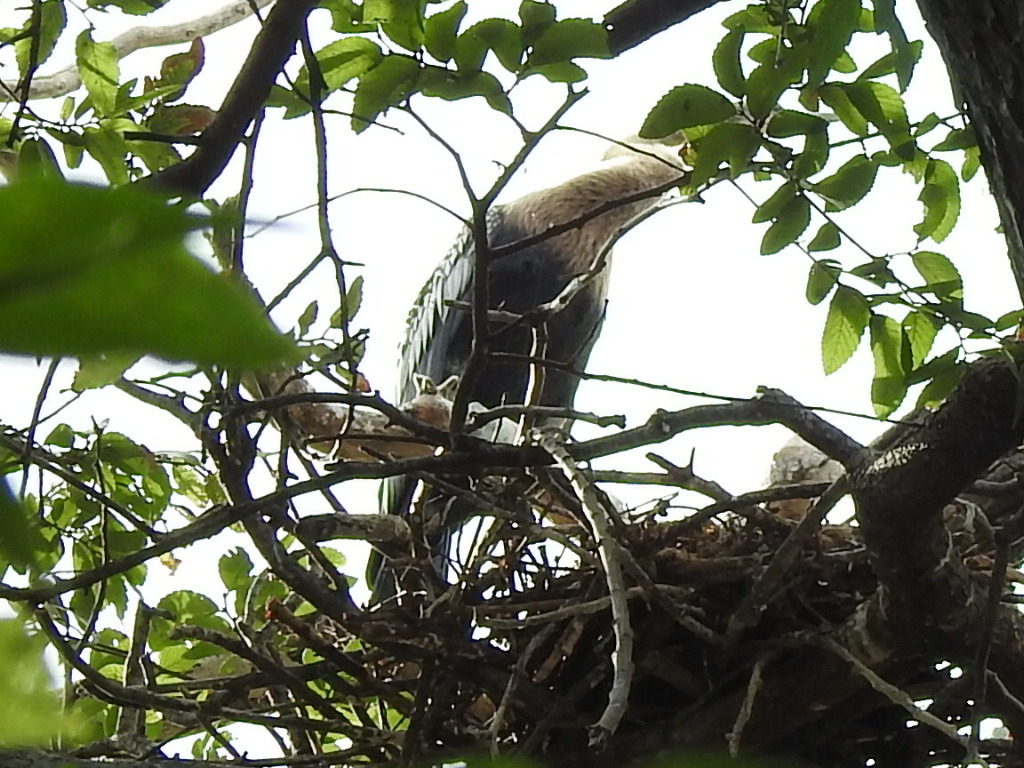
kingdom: Animalia
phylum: Chordata
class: Aves
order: Suliformes
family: Anhingidae
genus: Anhinga
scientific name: Anhinga anhinga
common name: Anhinga
